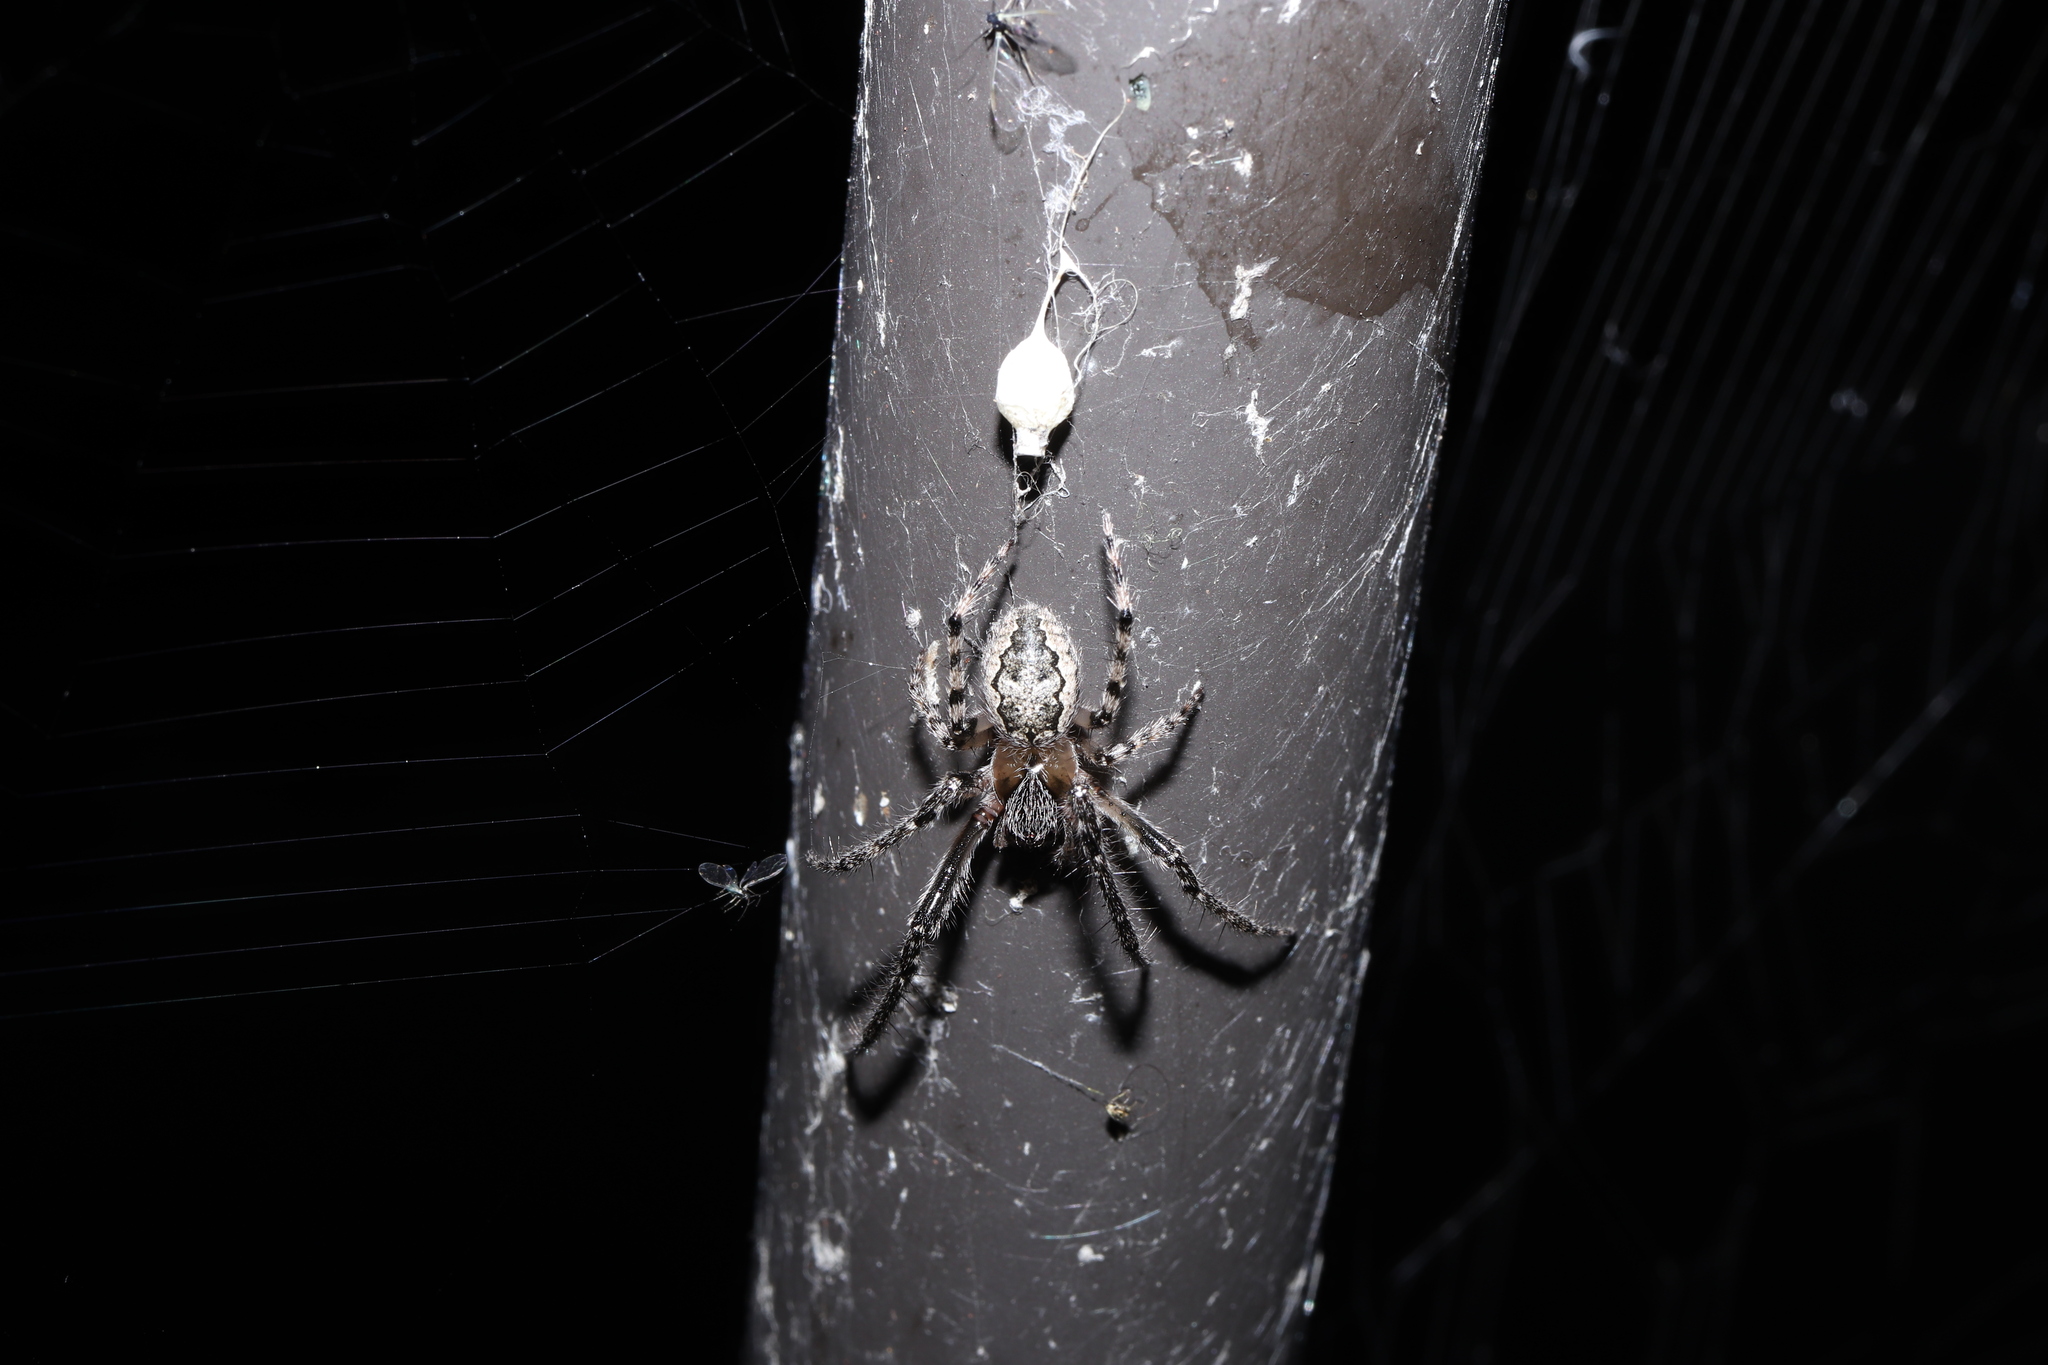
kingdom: Animalia
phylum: Arthropoda
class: Arachnida
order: Araneae
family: Araneidae
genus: Yaginumia
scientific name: Yaginumia sia
